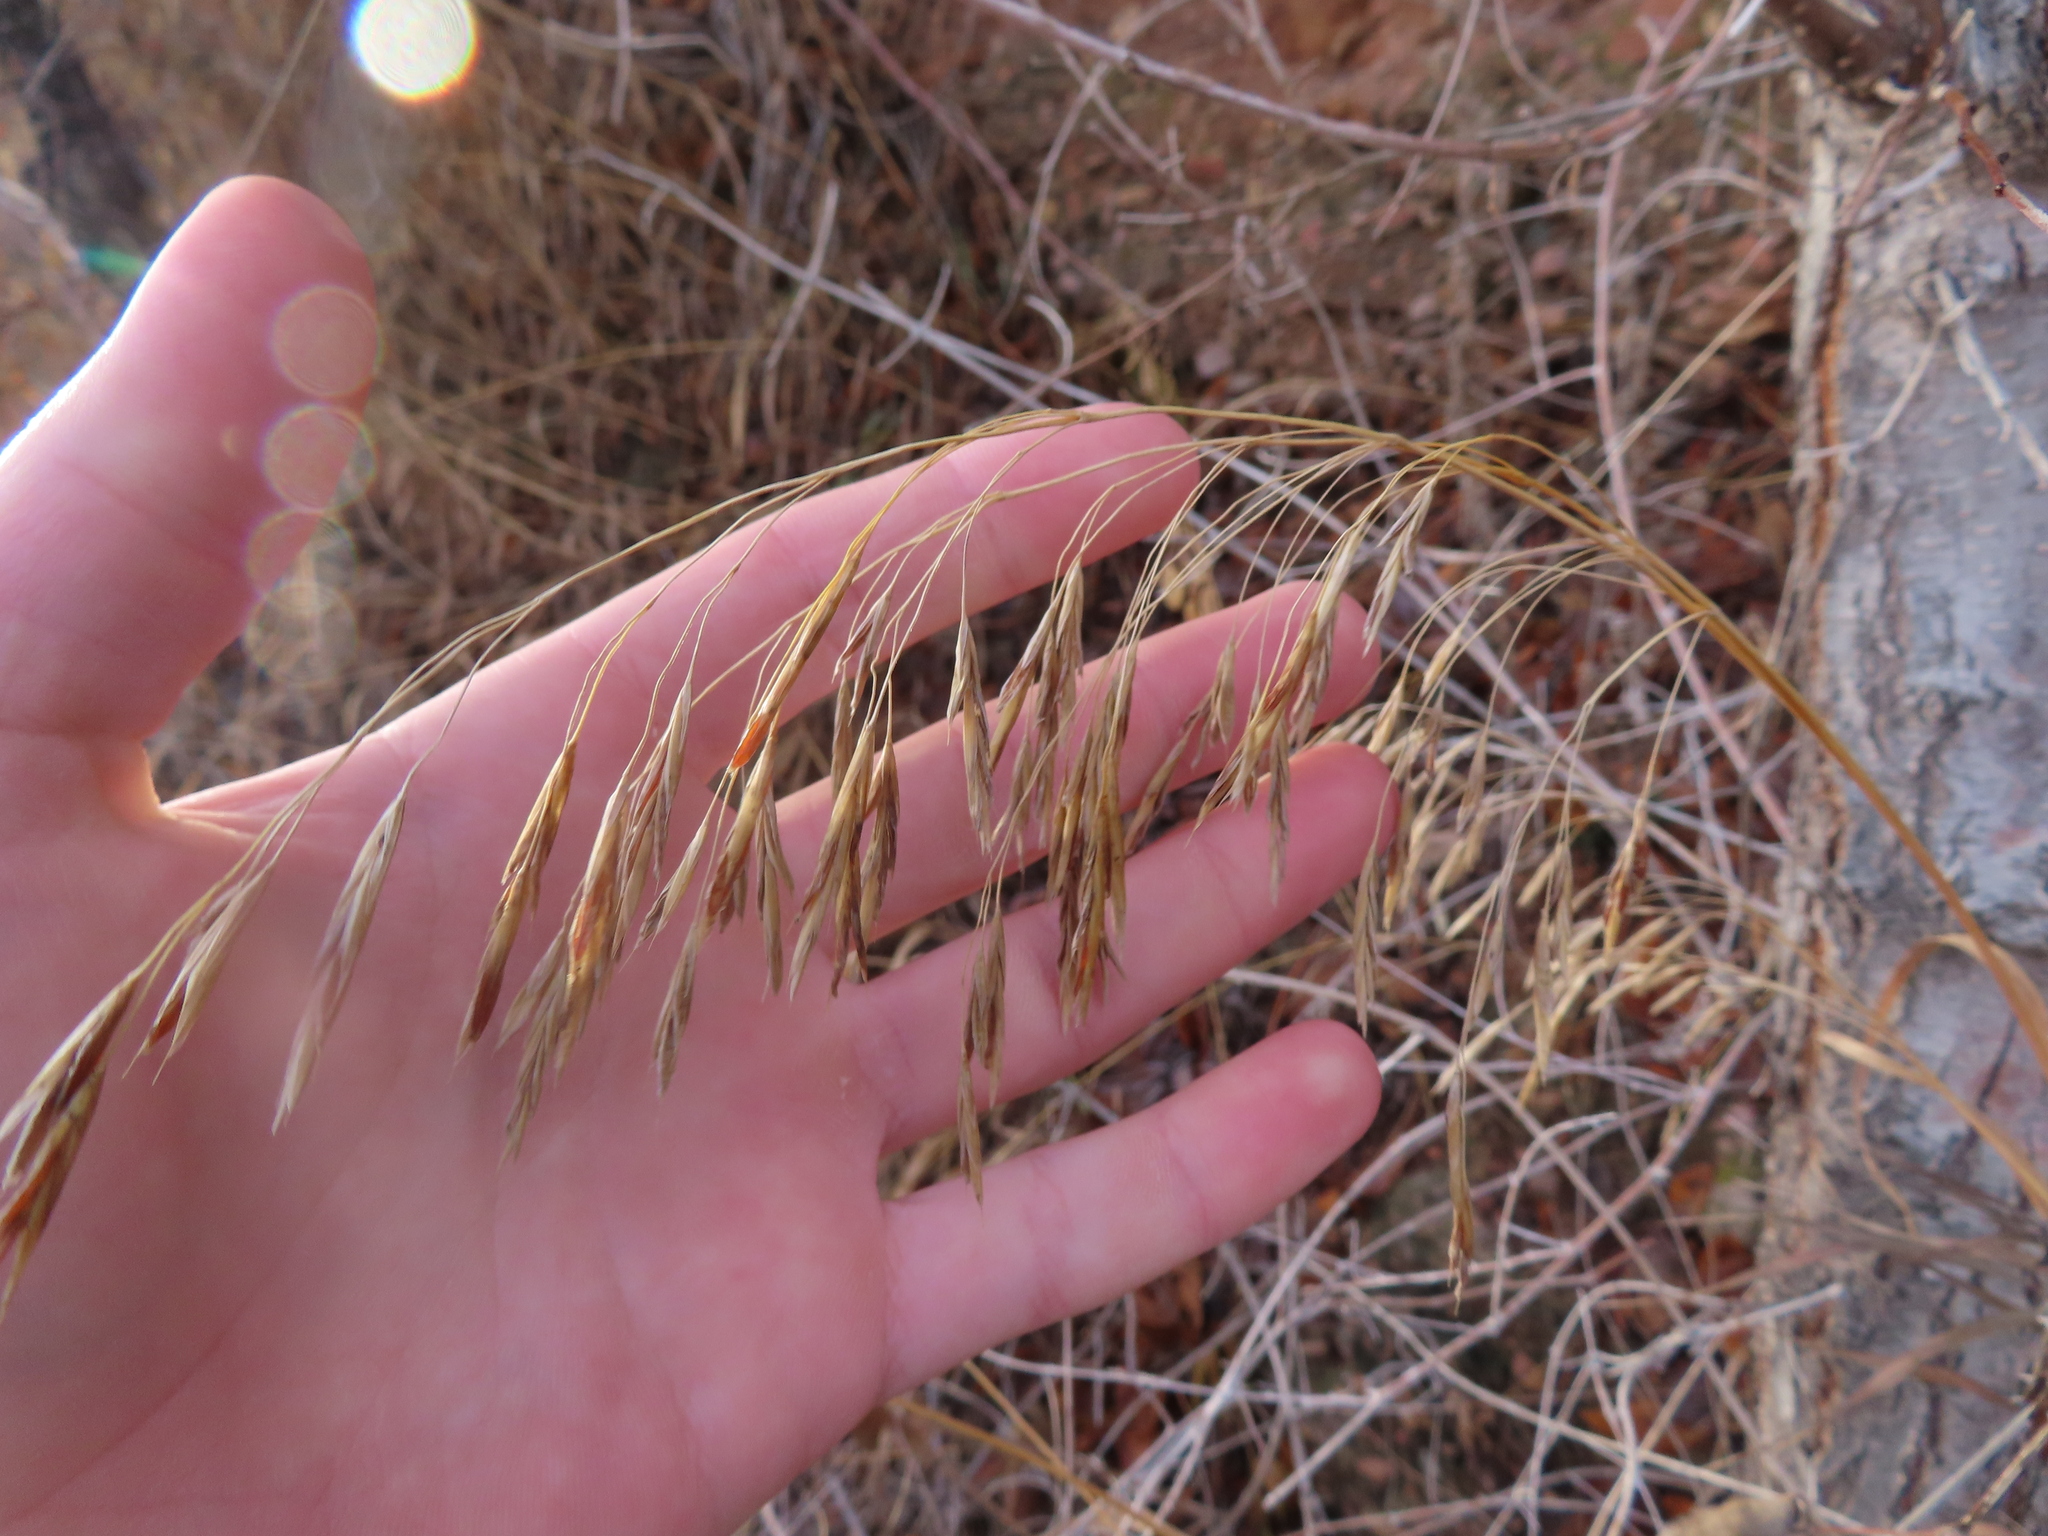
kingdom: Plantae
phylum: Tracheophyta
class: Liliopsida
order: Poales
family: Poaceae
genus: Bromus
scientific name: Bromus inermis
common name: Smooth brome
